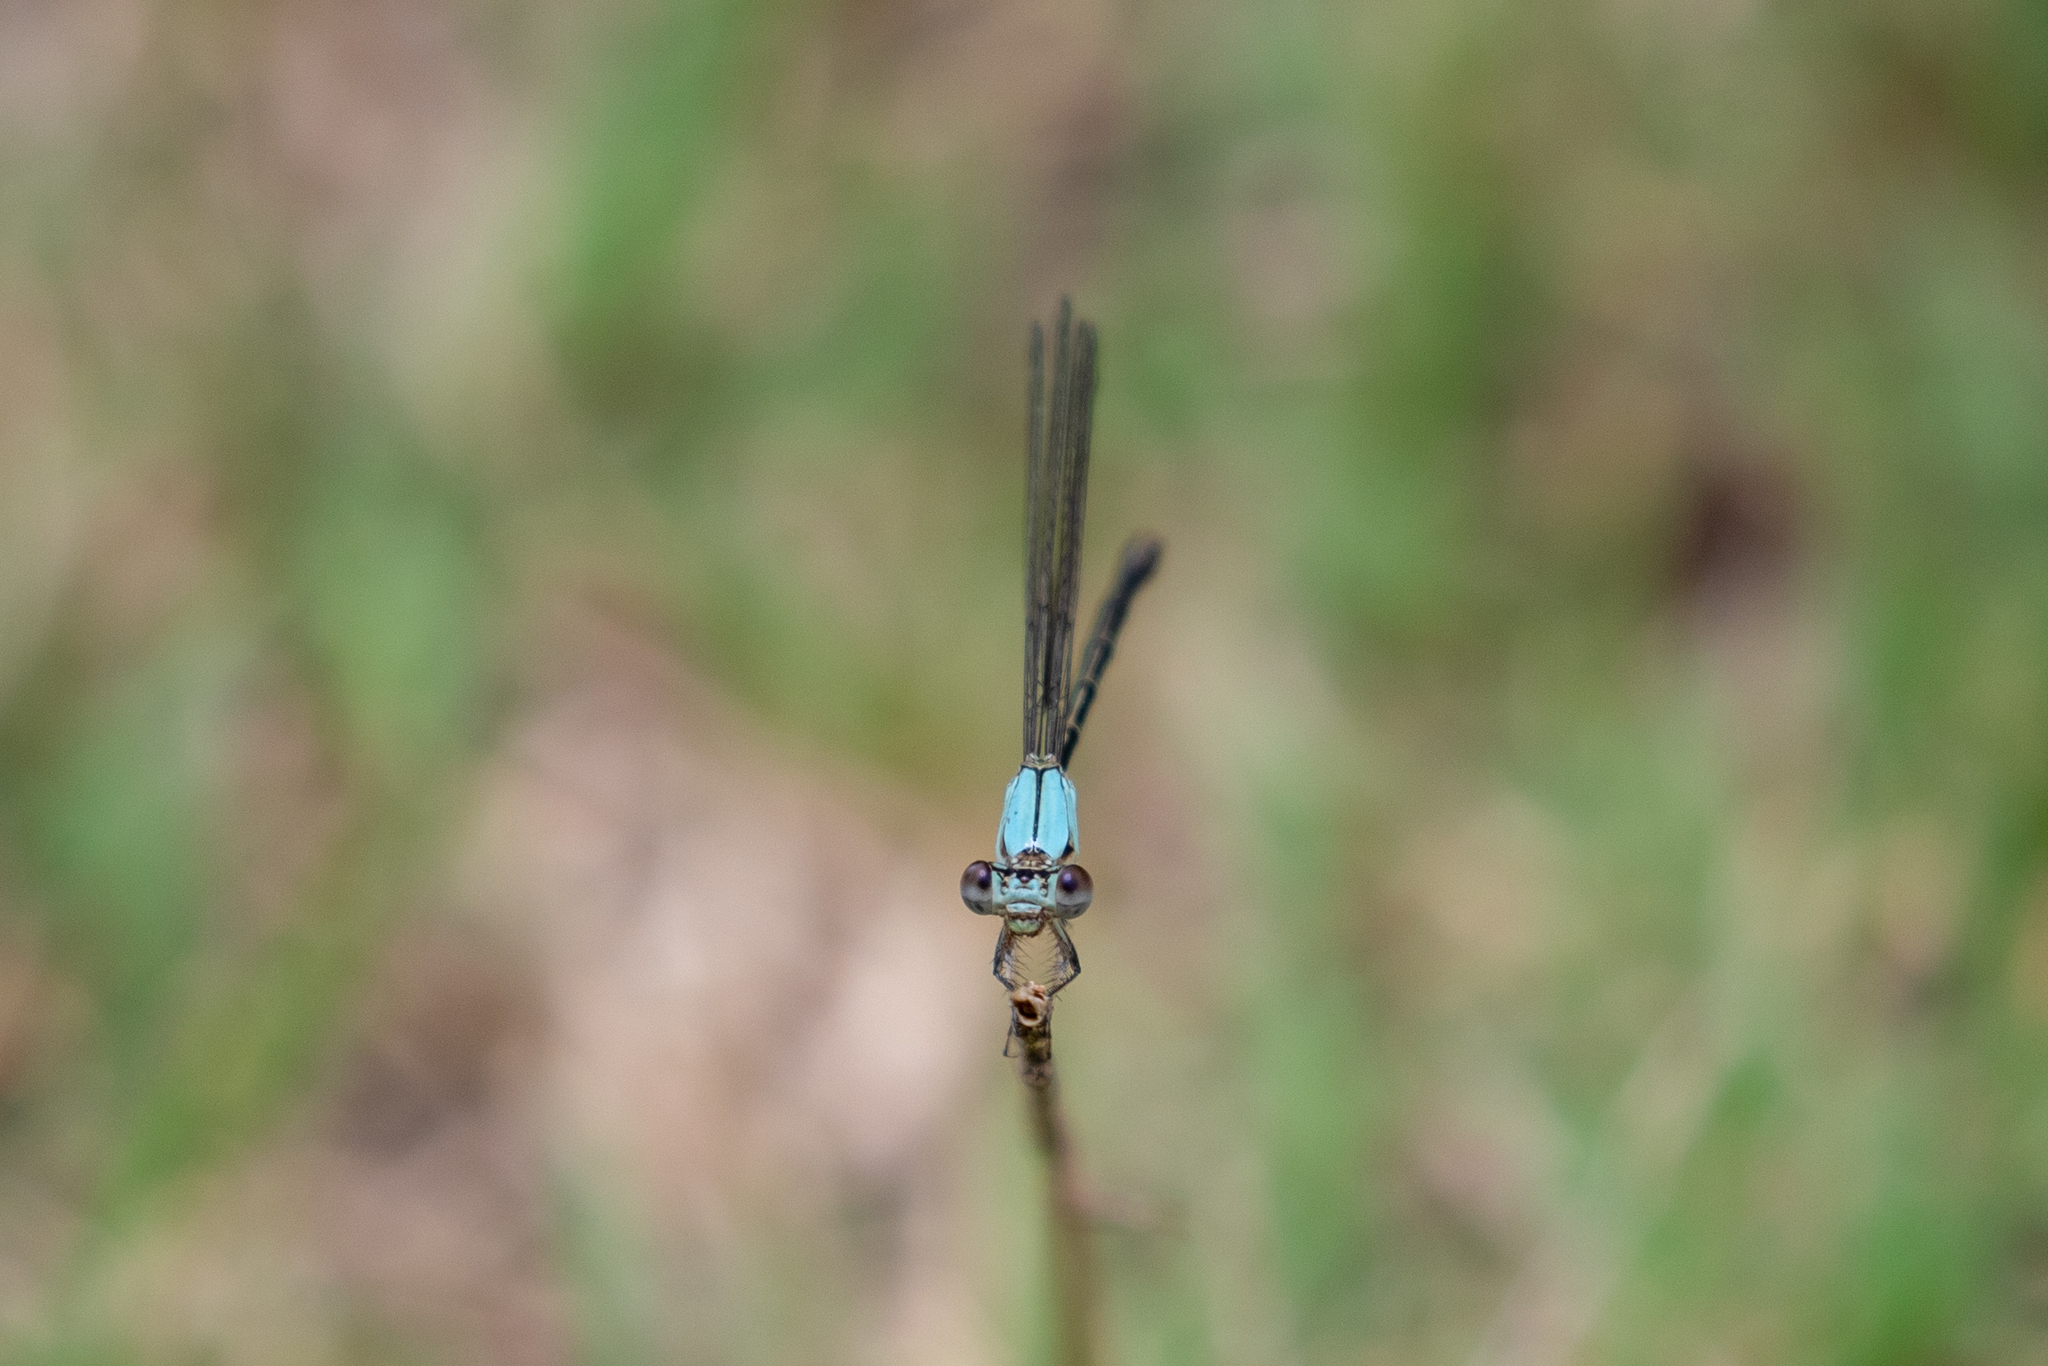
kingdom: Animalia
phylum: Arthropoda
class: Insecta
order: Odonata
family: Coenagrionidae
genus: Argia
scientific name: Argia apicalis
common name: Blue-fronted dancer
